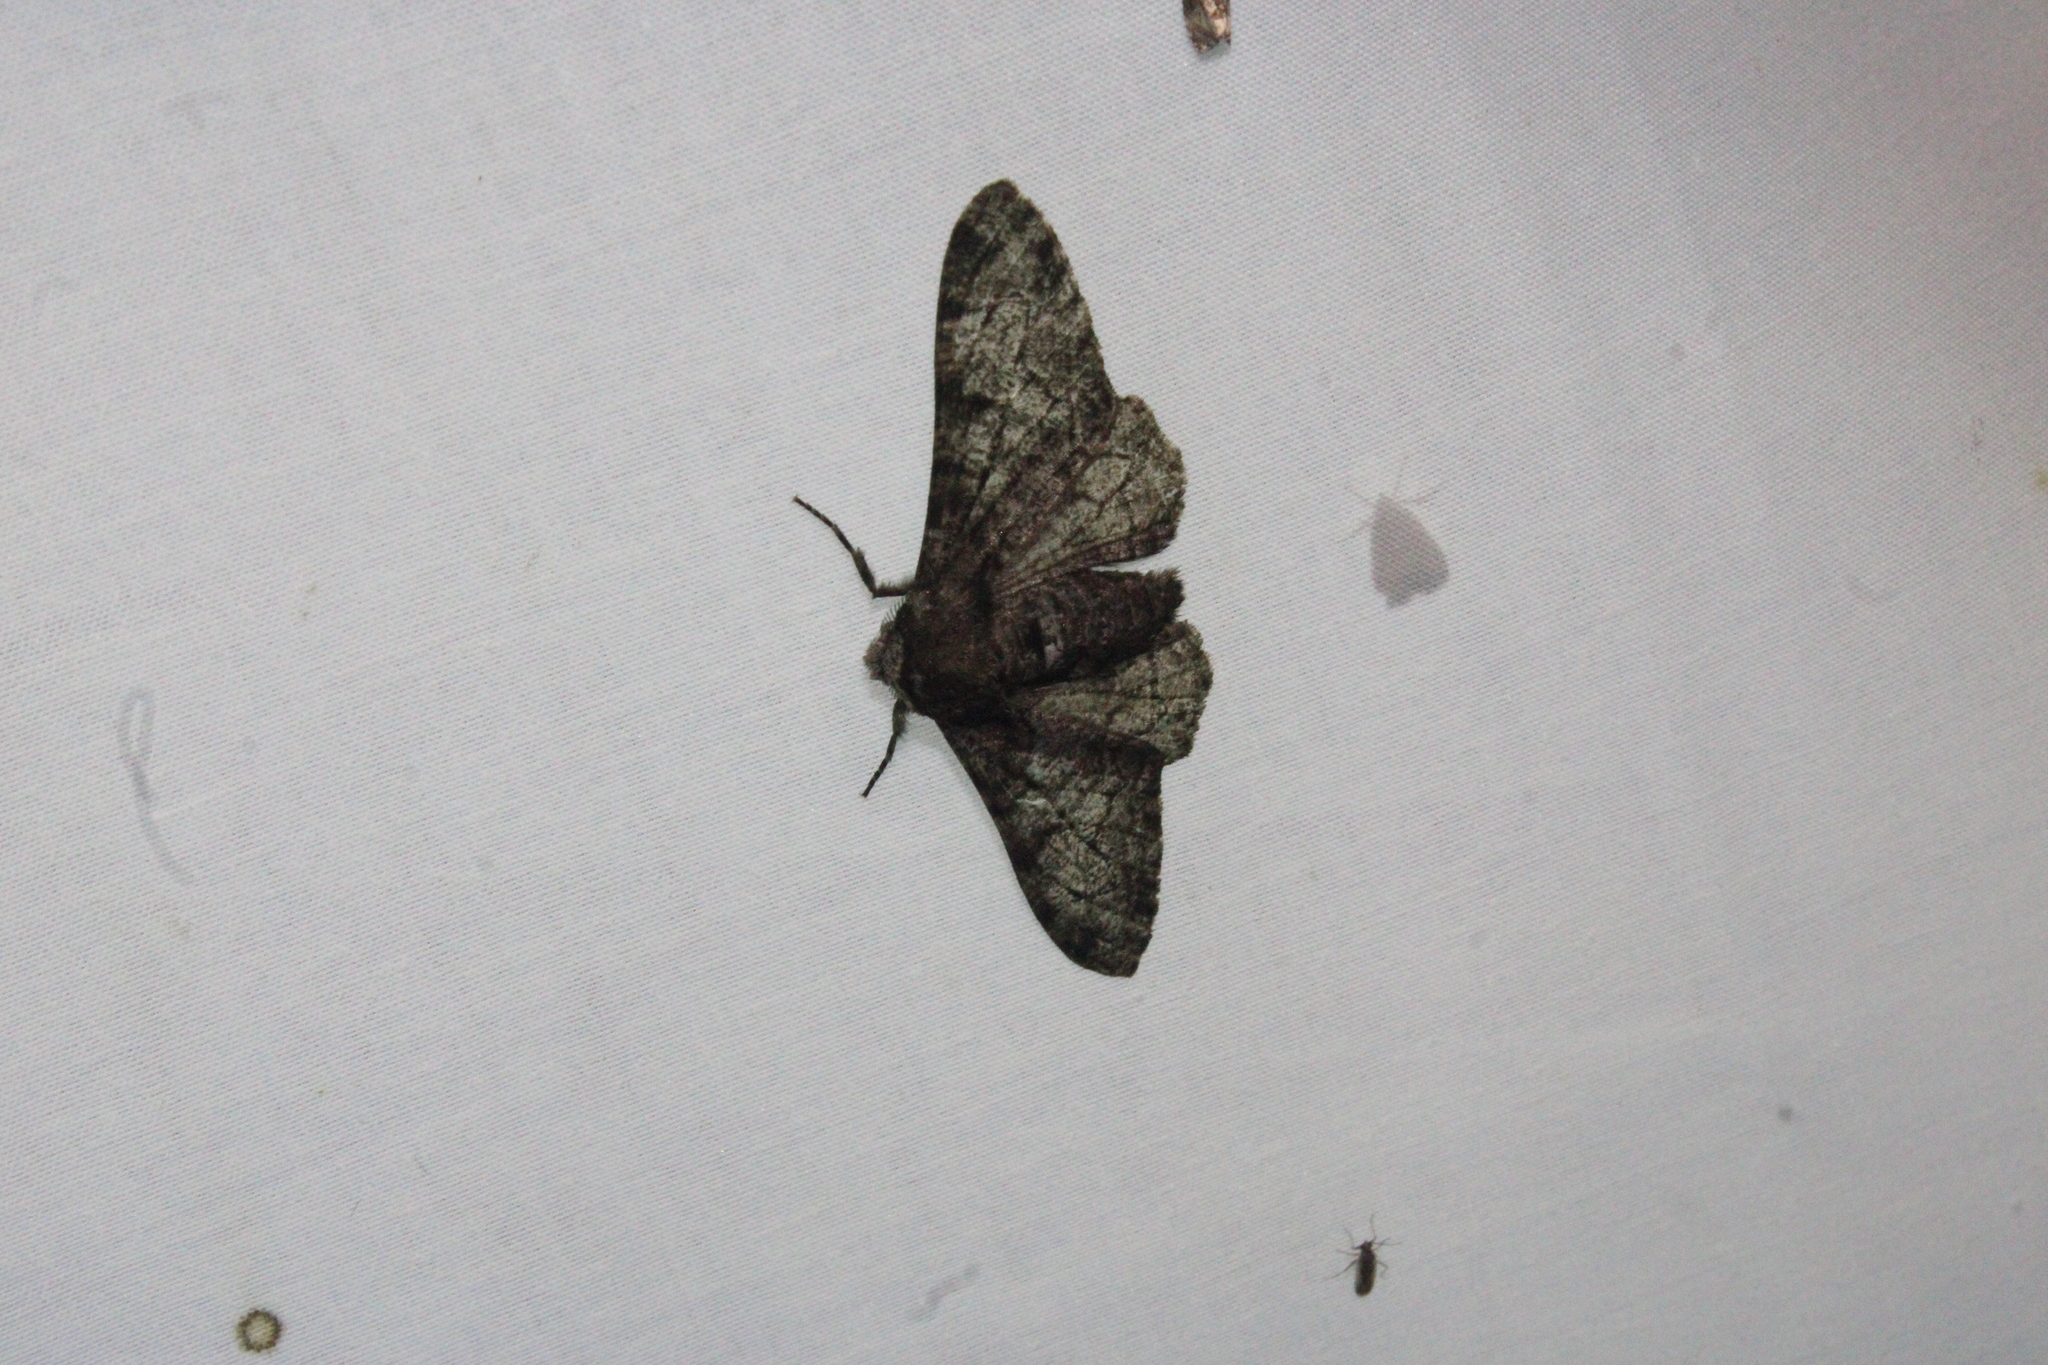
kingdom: Animalia
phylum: Arthropoda
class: Insecta
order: Lepidoptera
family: Geometridae
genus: Biston
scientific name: Biston betularia
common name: Peppered moth
